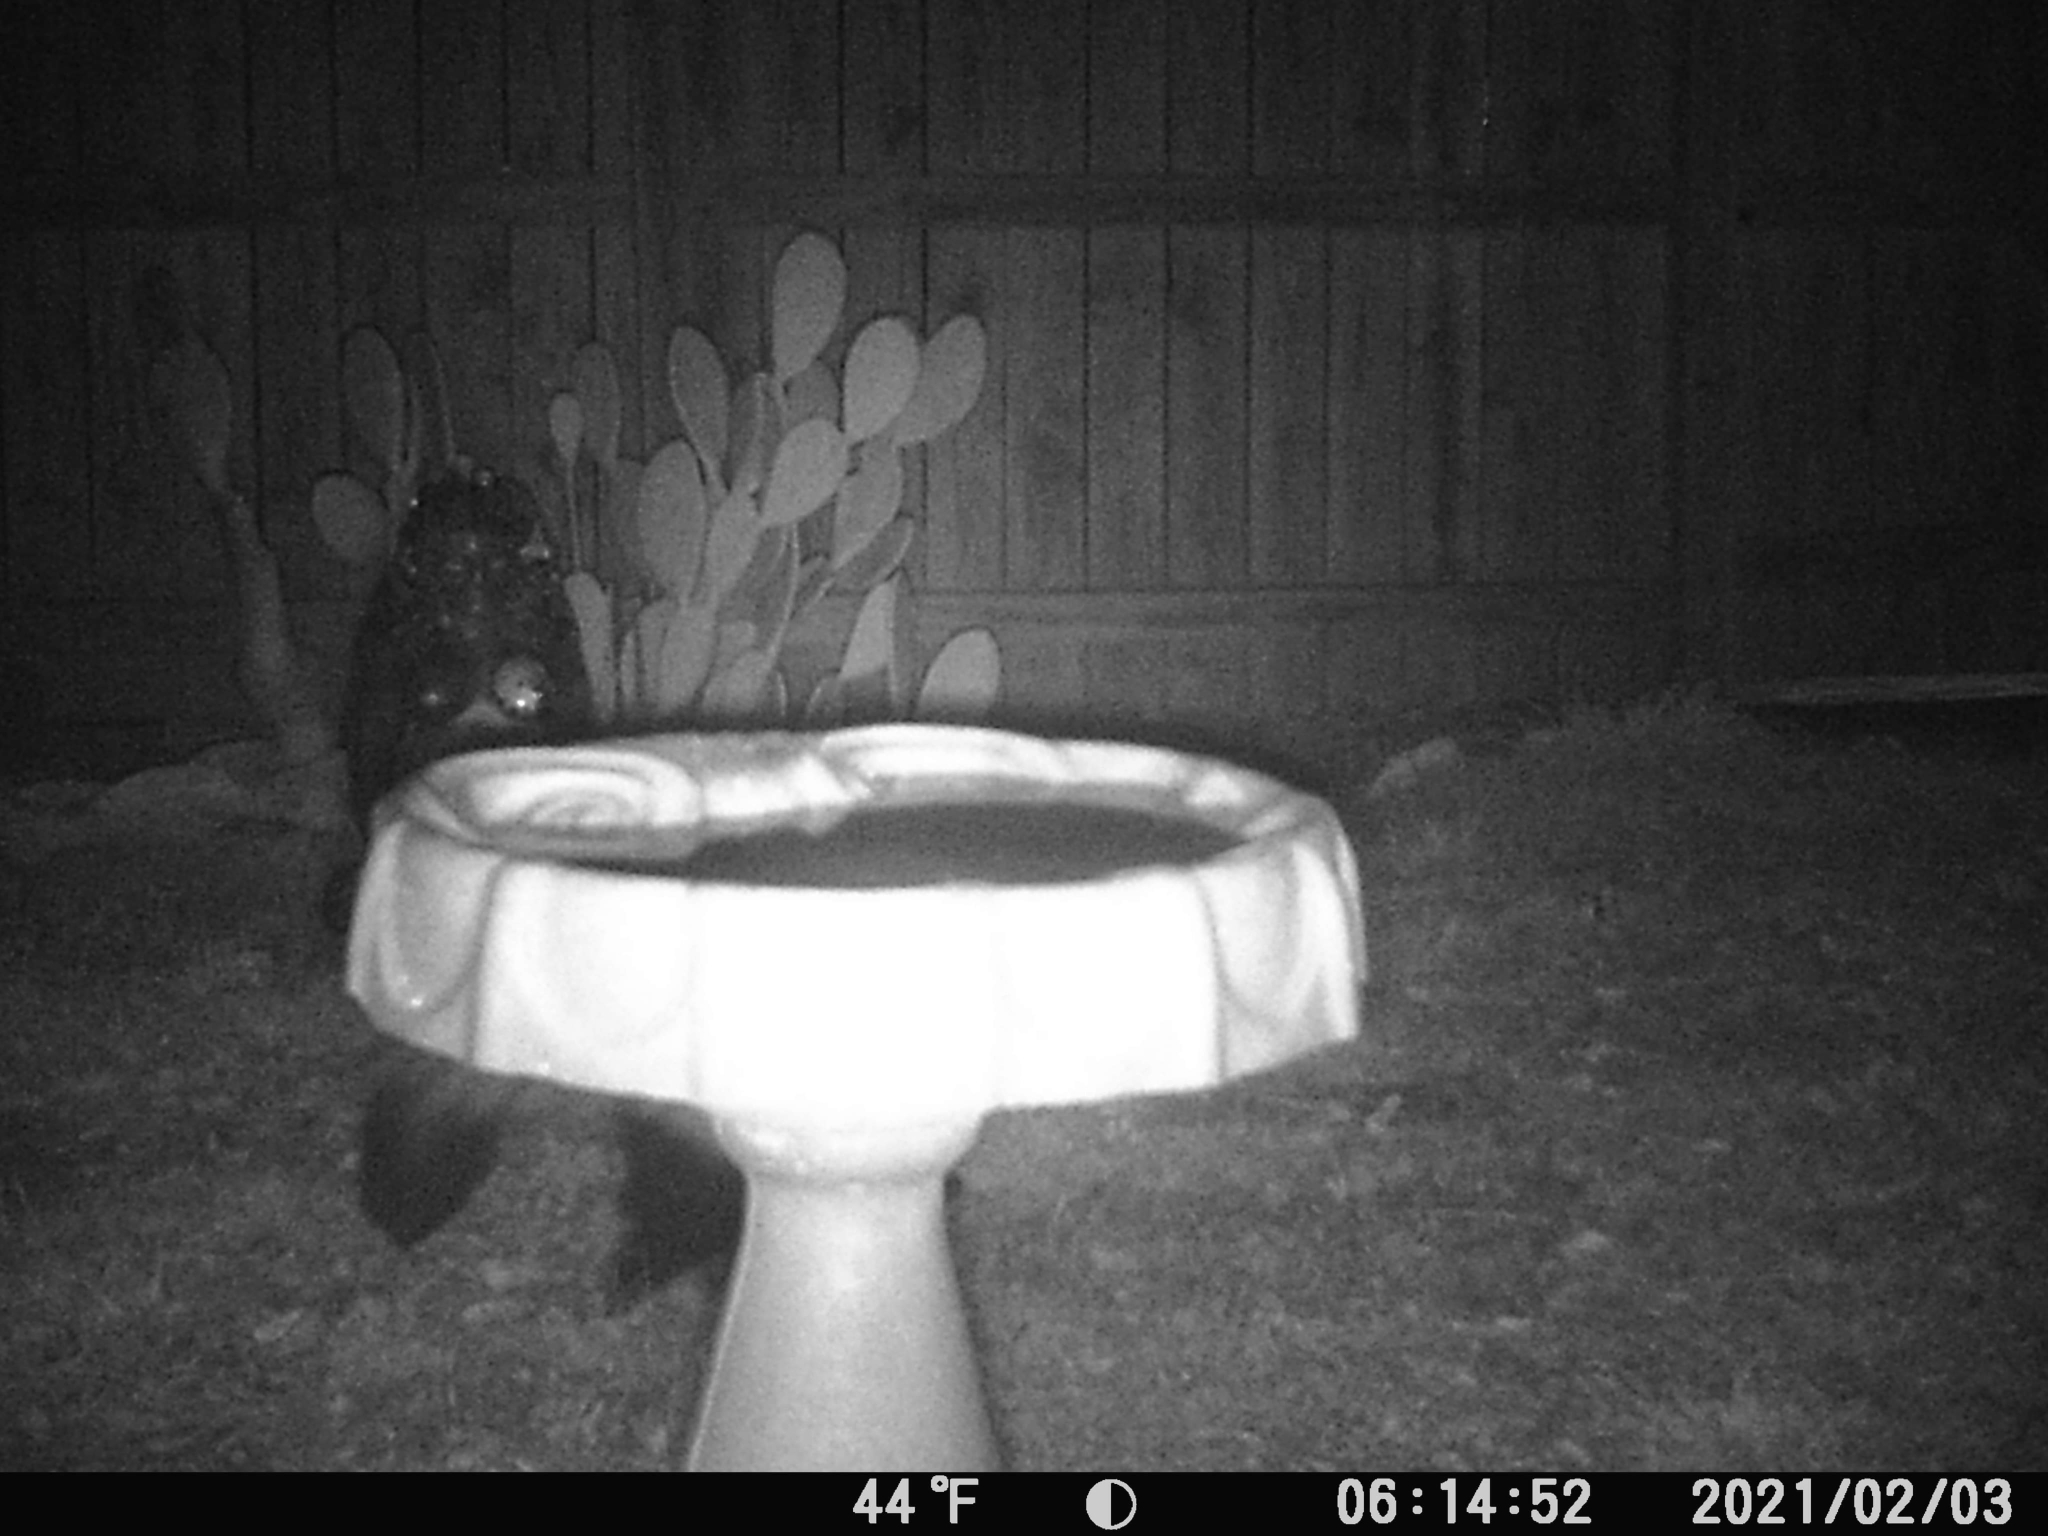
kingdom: Animalia
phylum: Chordata
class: Mammalia
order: Carnivora
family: Mephitidae
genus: Mephitis
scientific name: Mephitis mephitis
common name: Striped skunk
